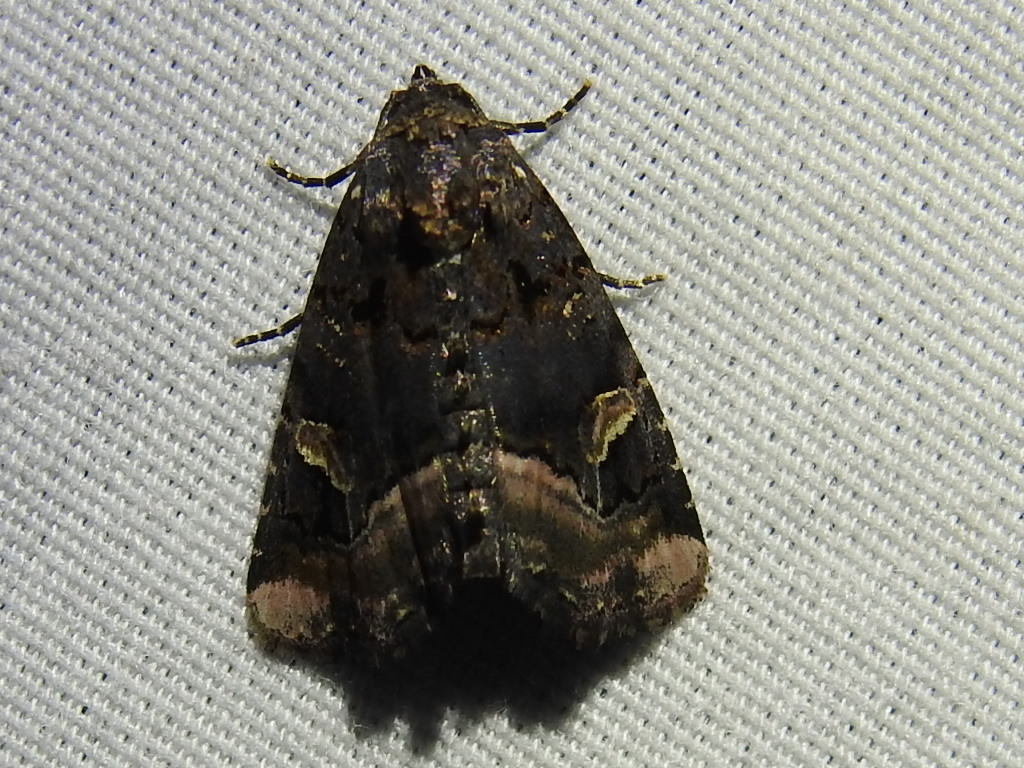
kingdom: Animalia
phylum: Arthropoda
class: Insecta
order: Lepidoptera
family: Noctuidae
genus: Homophoberia
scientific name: Homophoberia apicosa
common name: Black wedge-spot
